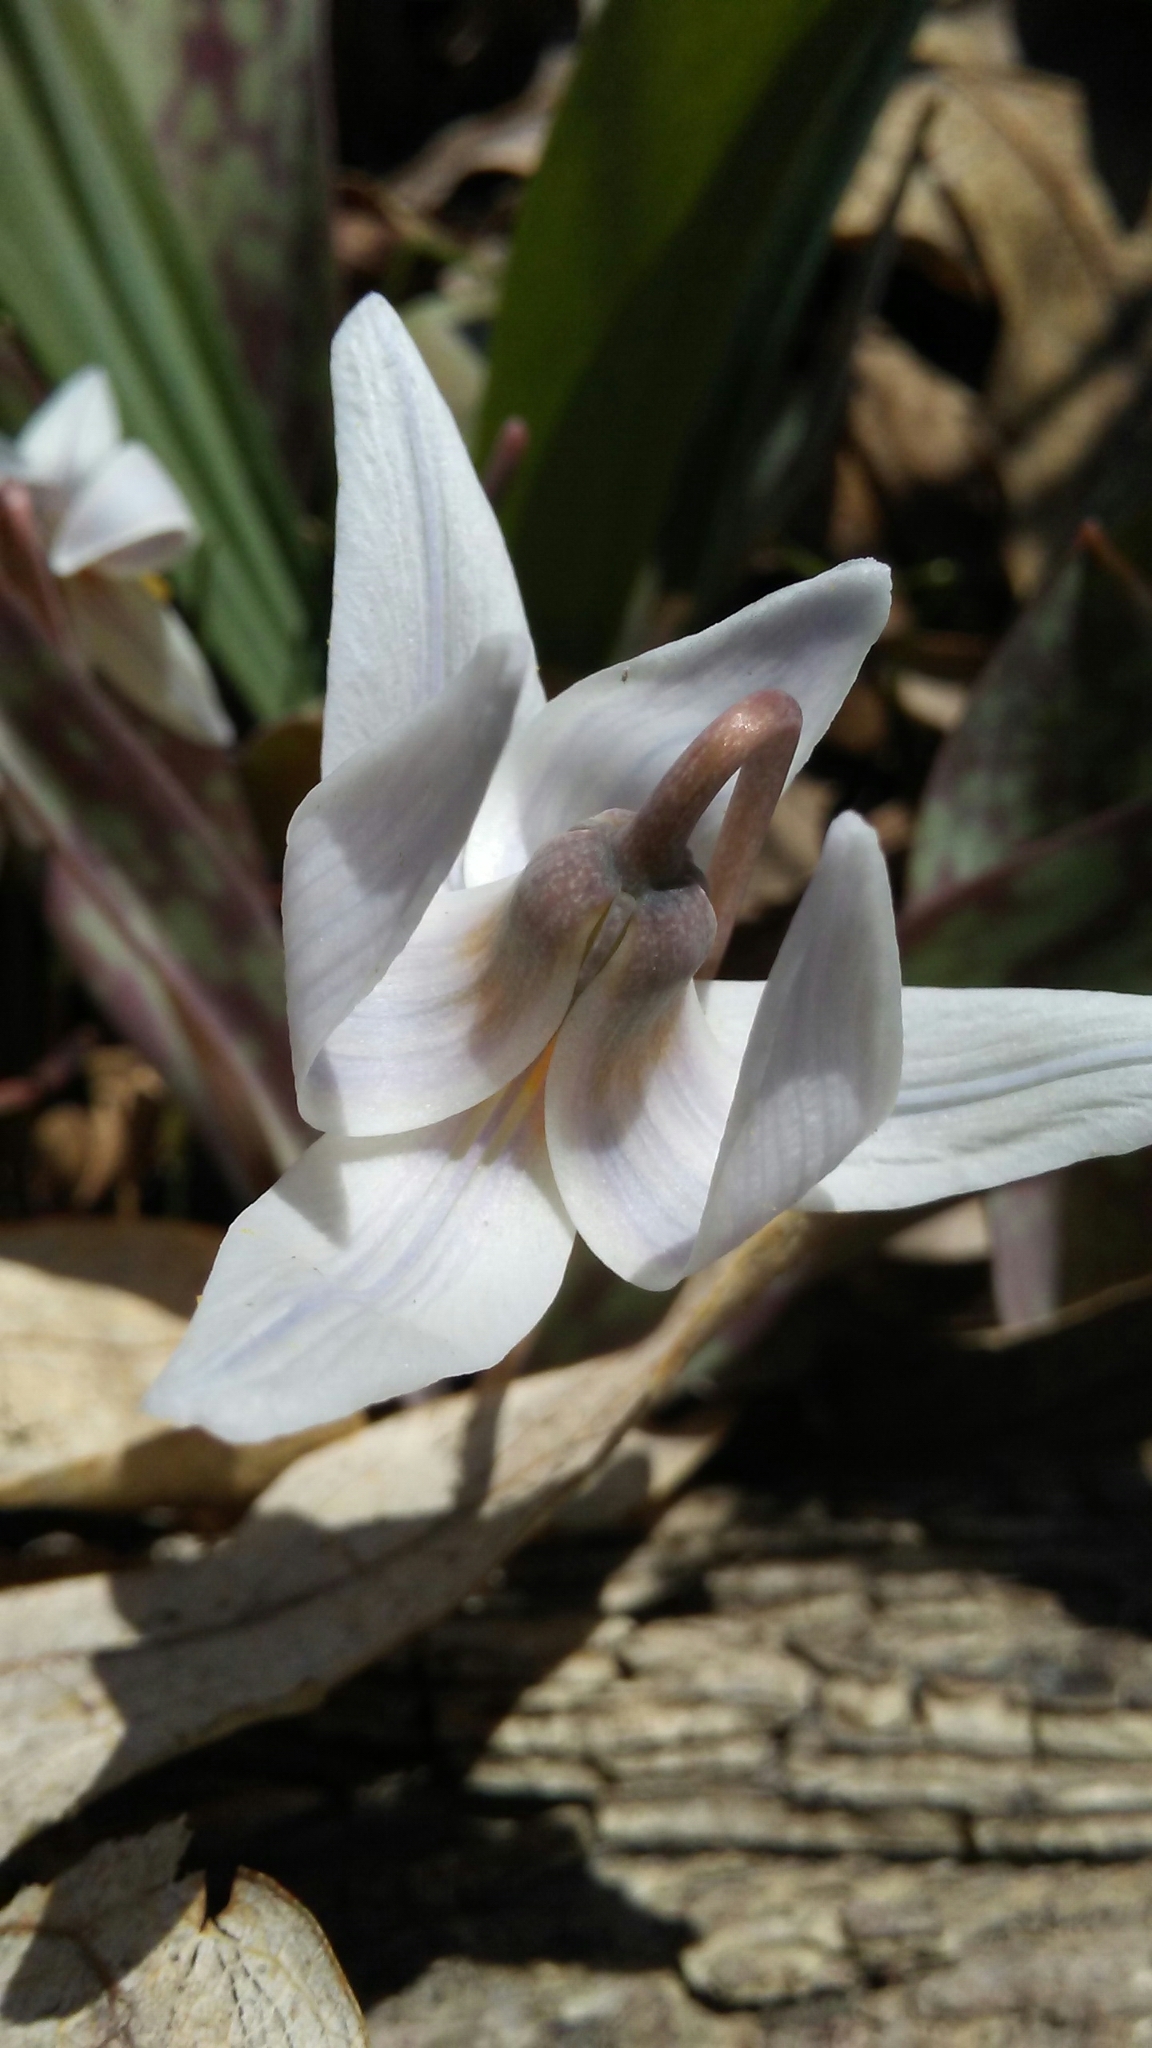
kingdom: Plantae
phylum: Tracheophyta
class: Liliopsida
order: Liliales
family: Liliaceae
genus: Erythronium
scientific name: Erythronium albidum
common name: White trout-lily
